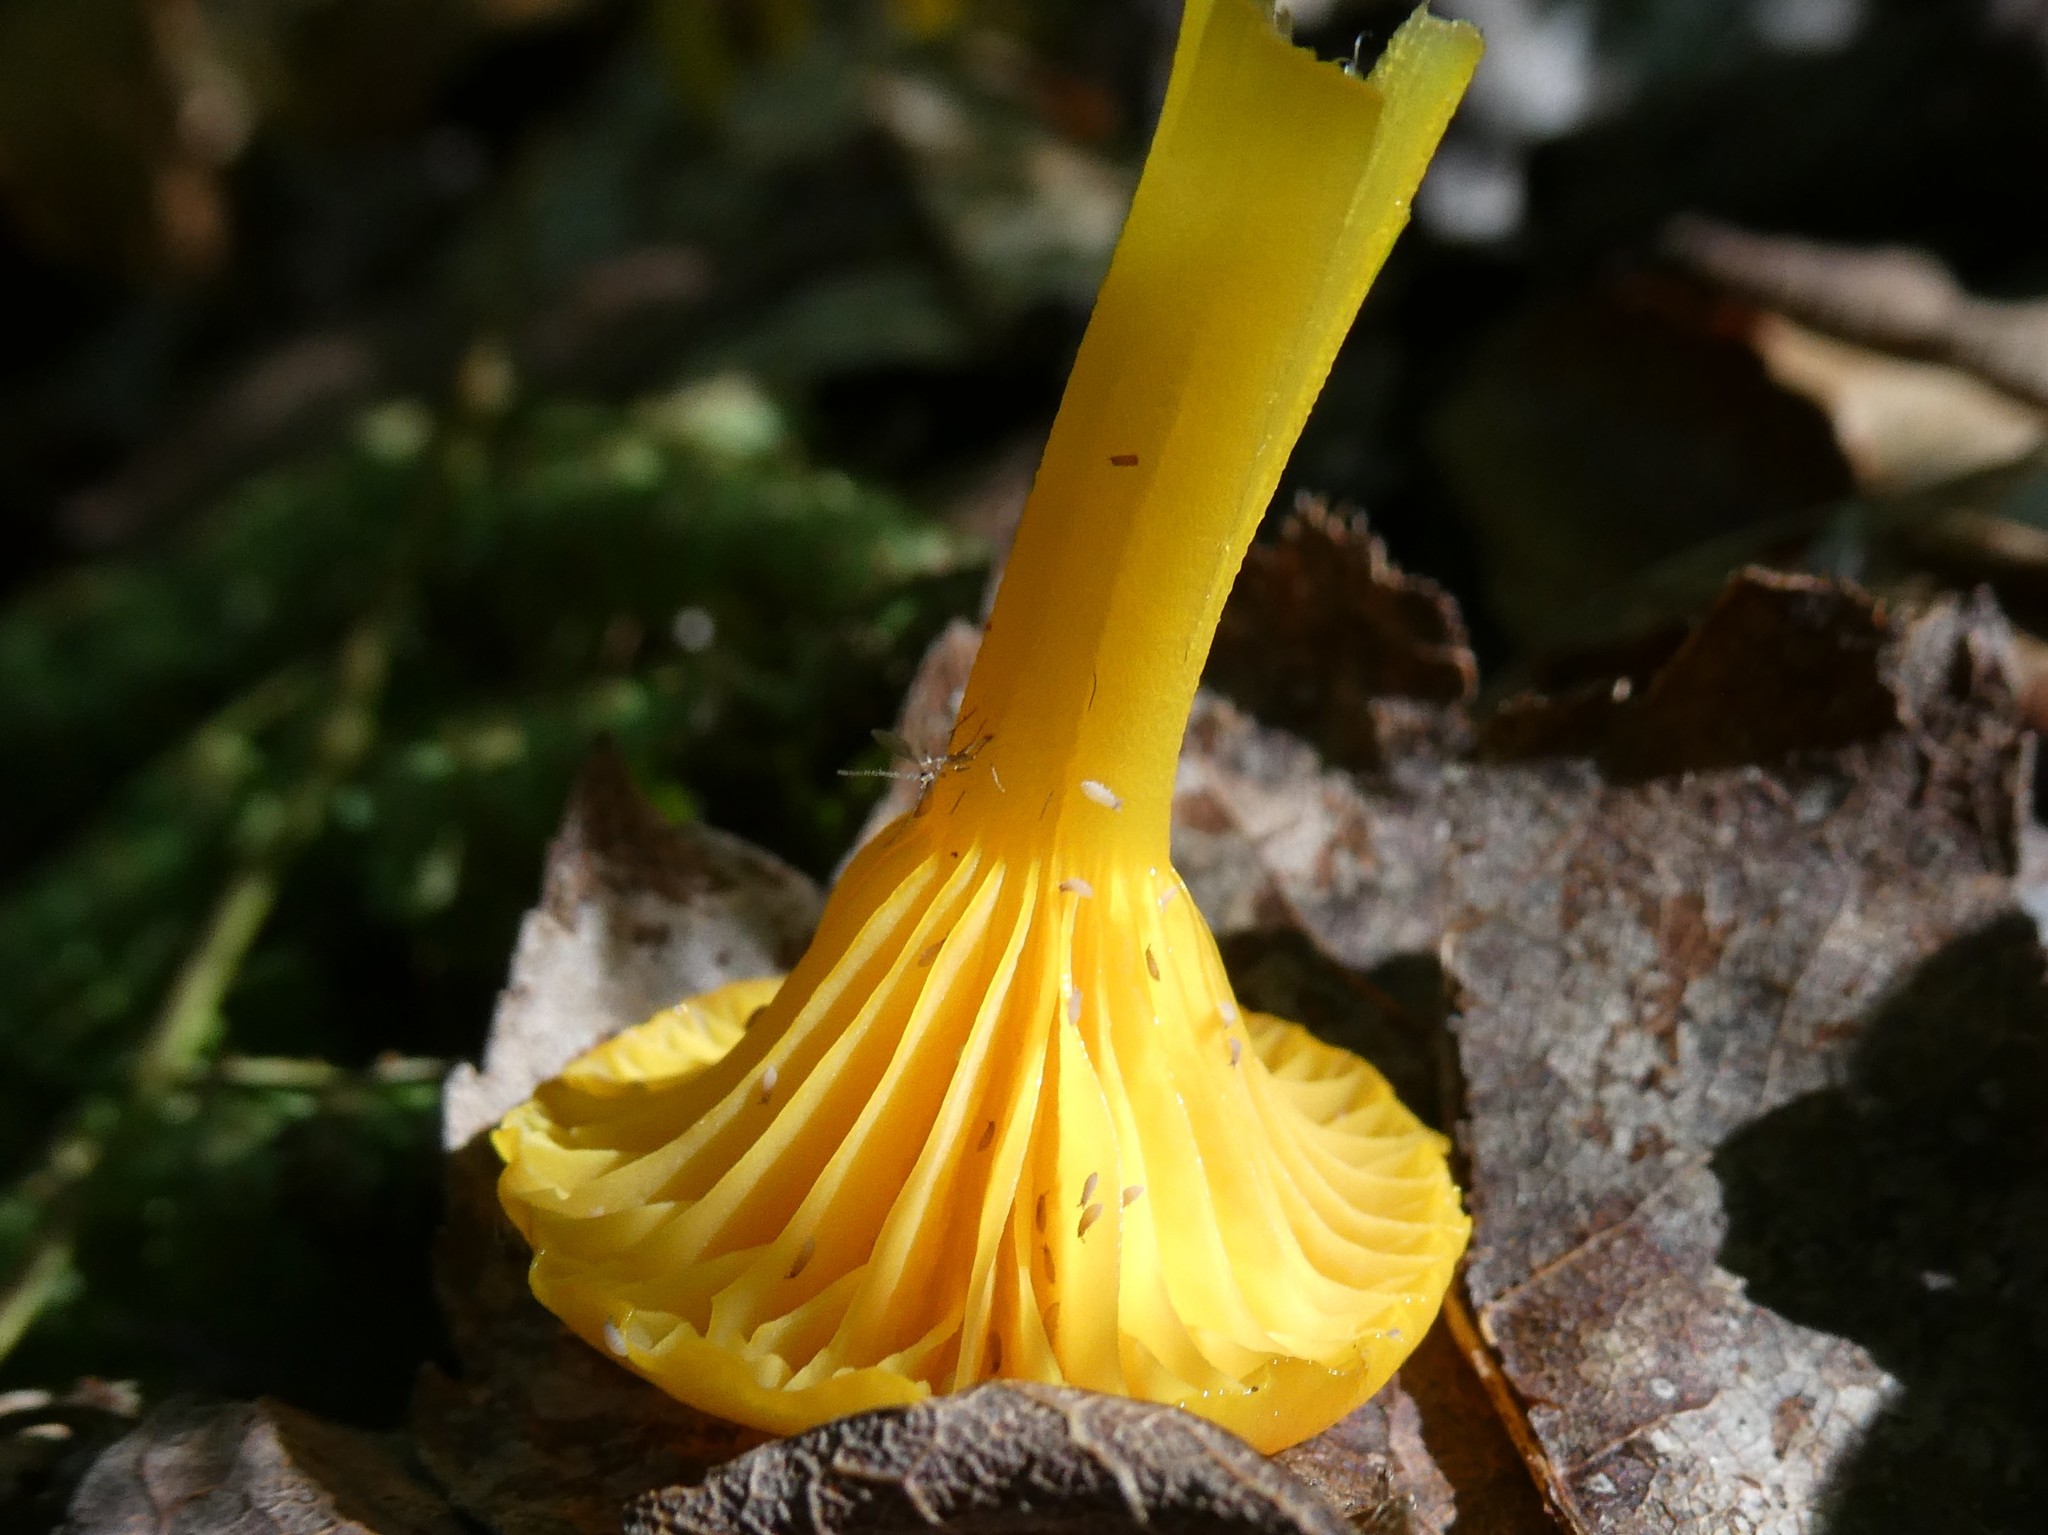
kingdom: Fungi
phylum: Basidiomycota
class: Agaricomycetes
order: Agaricales
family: Hygrophoraceae
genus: Gloioxanthomyces
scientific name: Gloioxanthomyces nitidus
